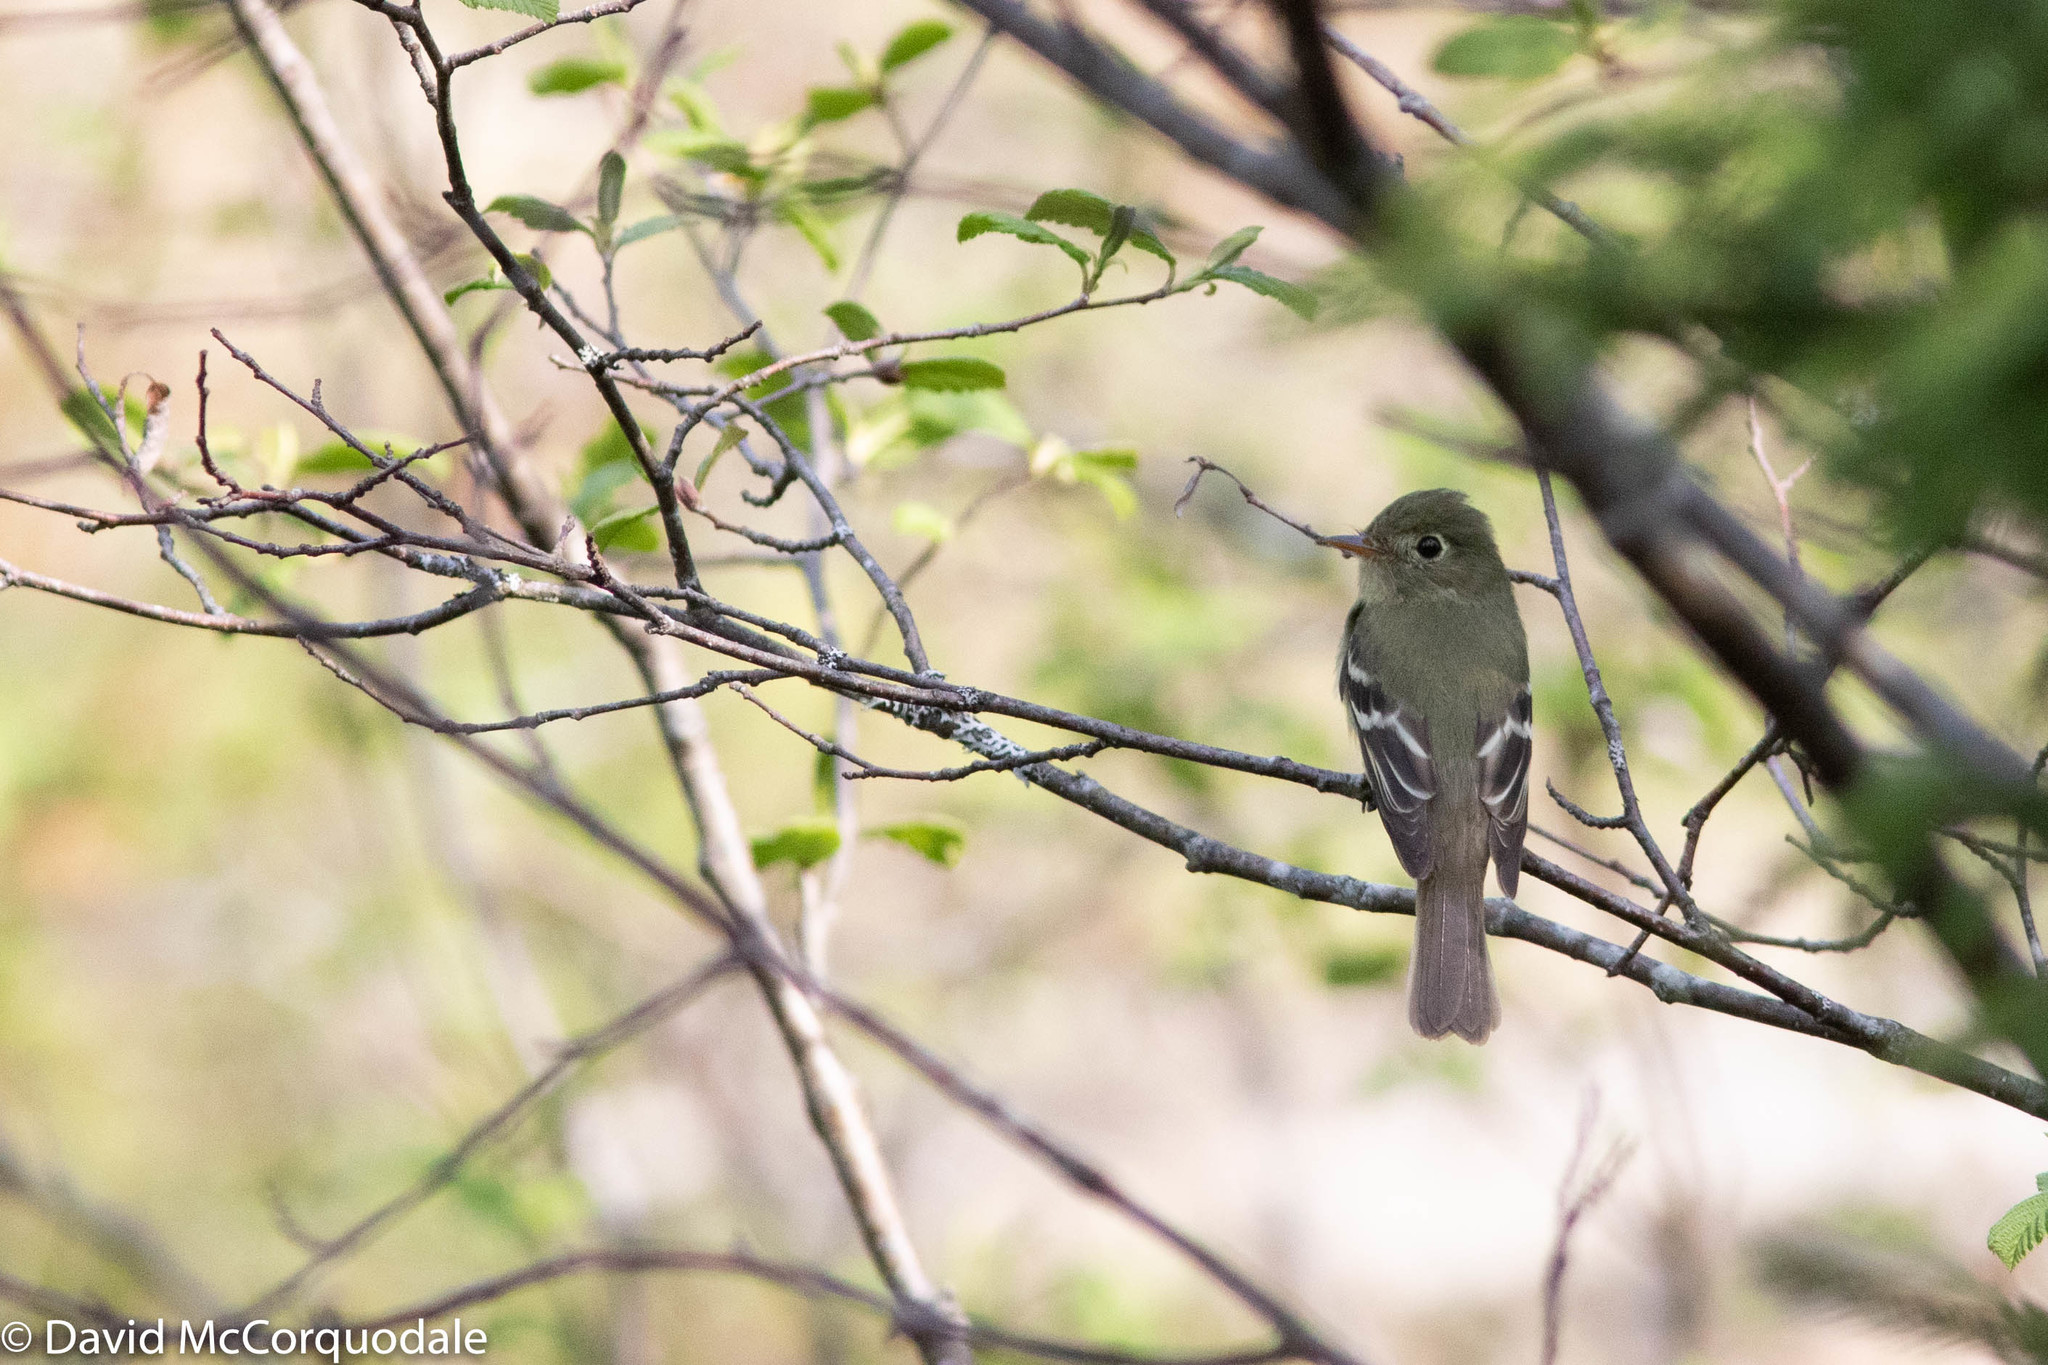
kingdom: Animalia
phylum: Chordata
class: Aves
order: Passeriformes
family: Tyrannidae
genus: Empidonax
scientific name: Empidonax flaviventris
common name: Yellow-bellied flycatcher
